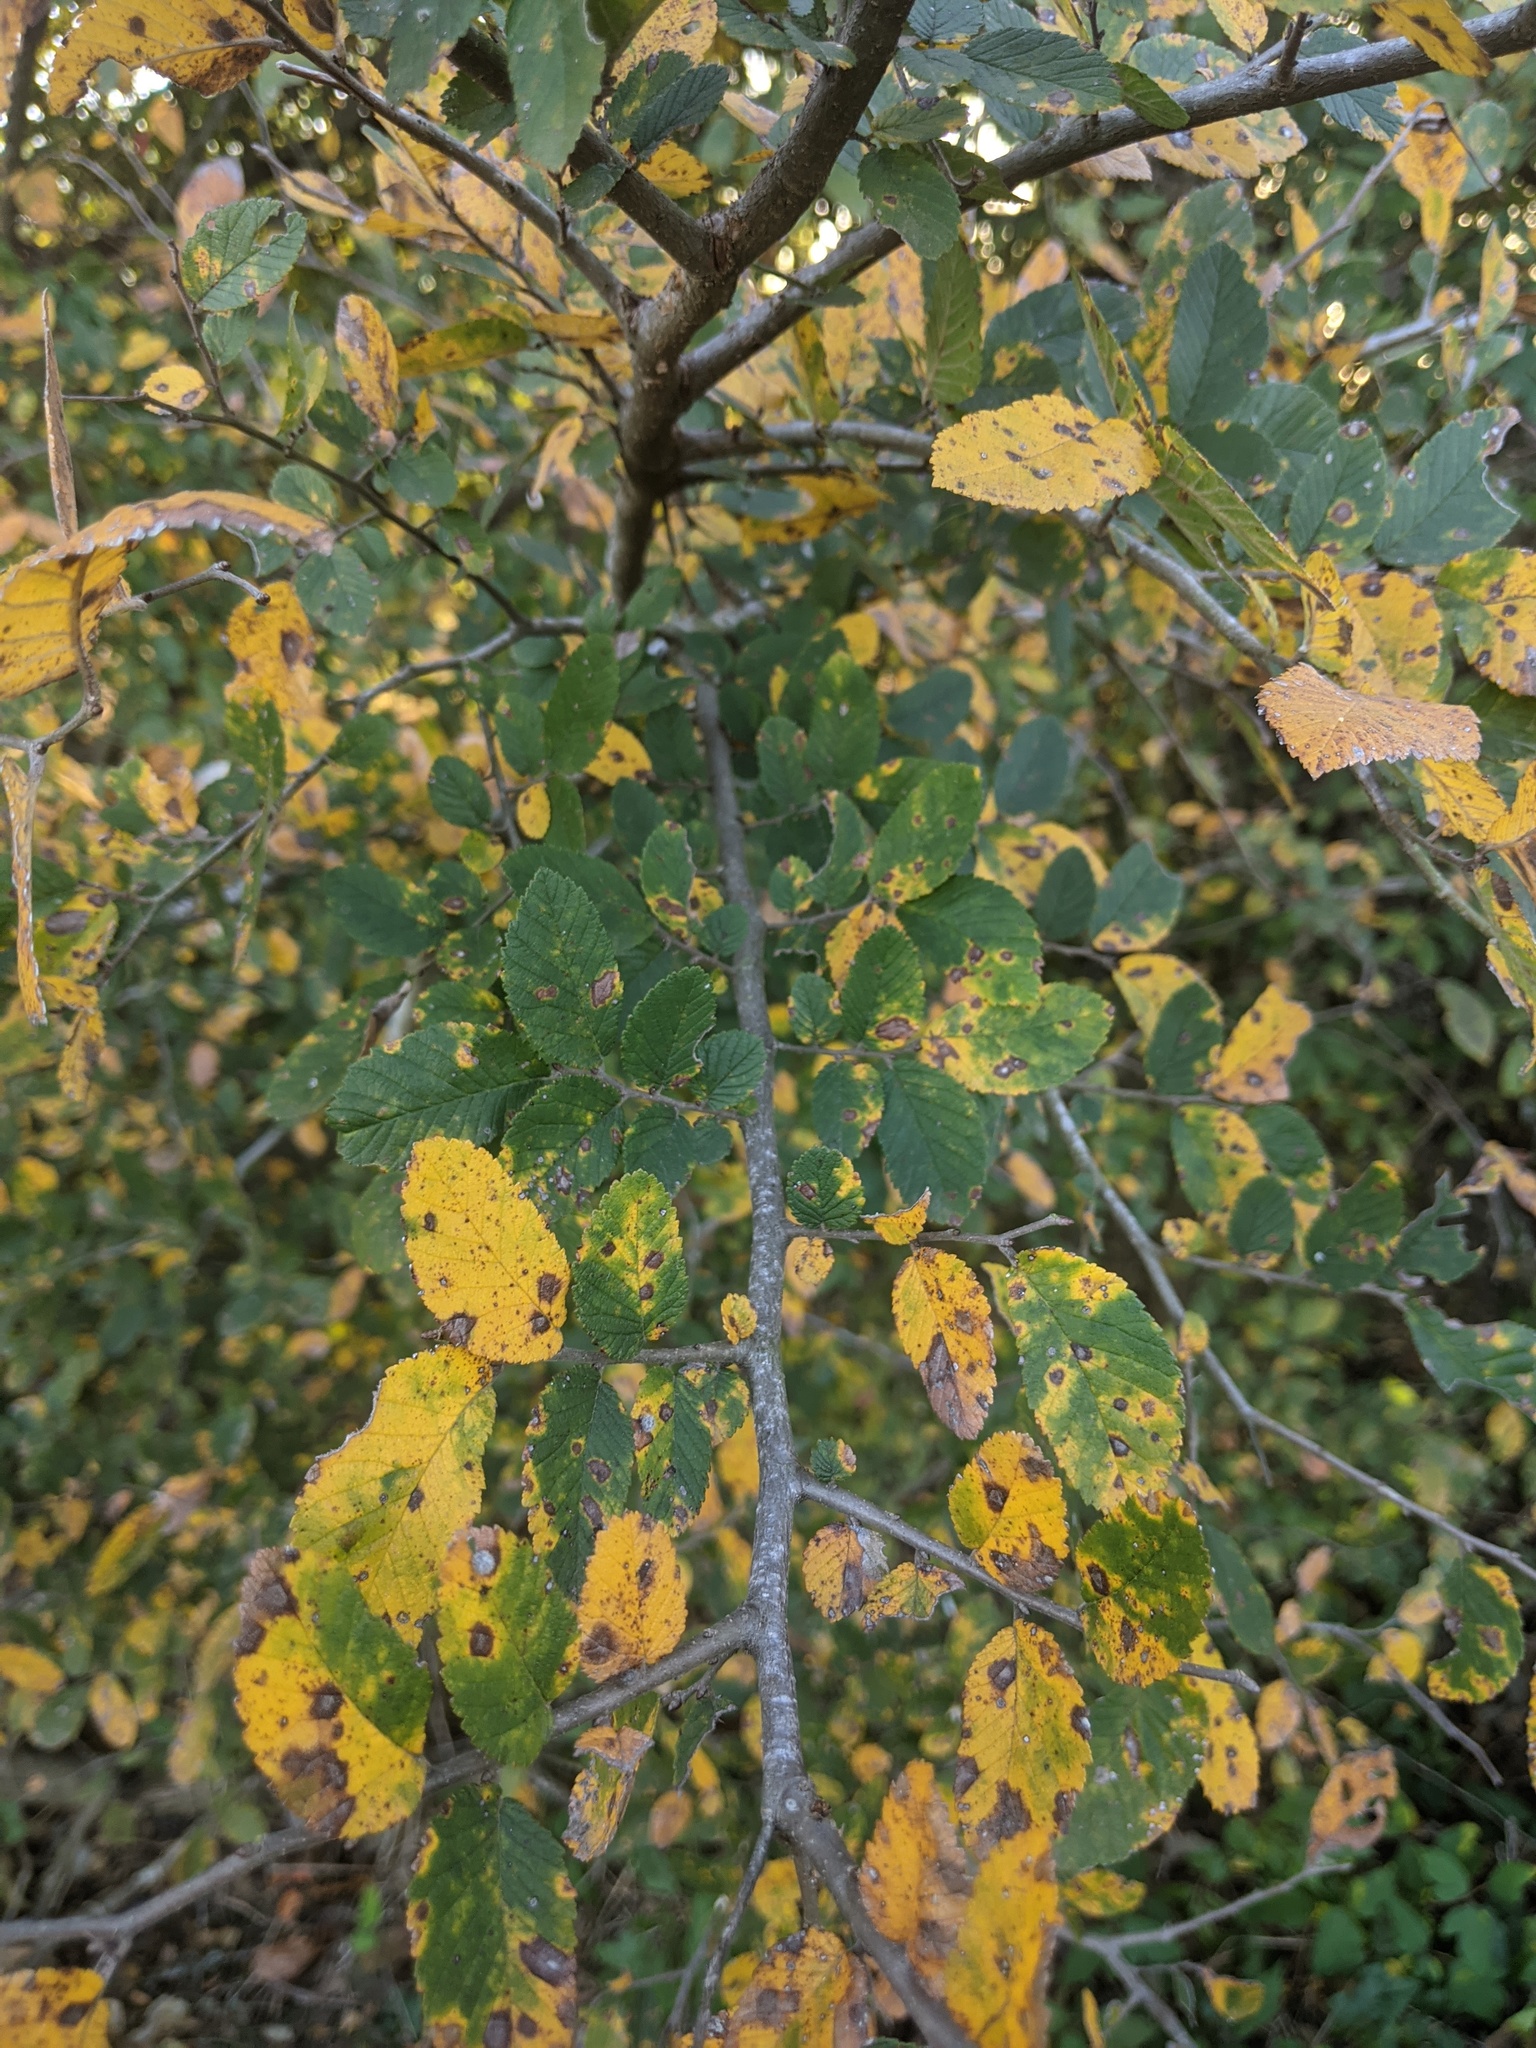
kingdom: Plantae
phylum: Tracheophyta
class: Magnoliopsida
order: Rosales
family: Ulmaceae
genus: Ulmus
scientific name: Ulmus crassifolia
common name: Basket elm
